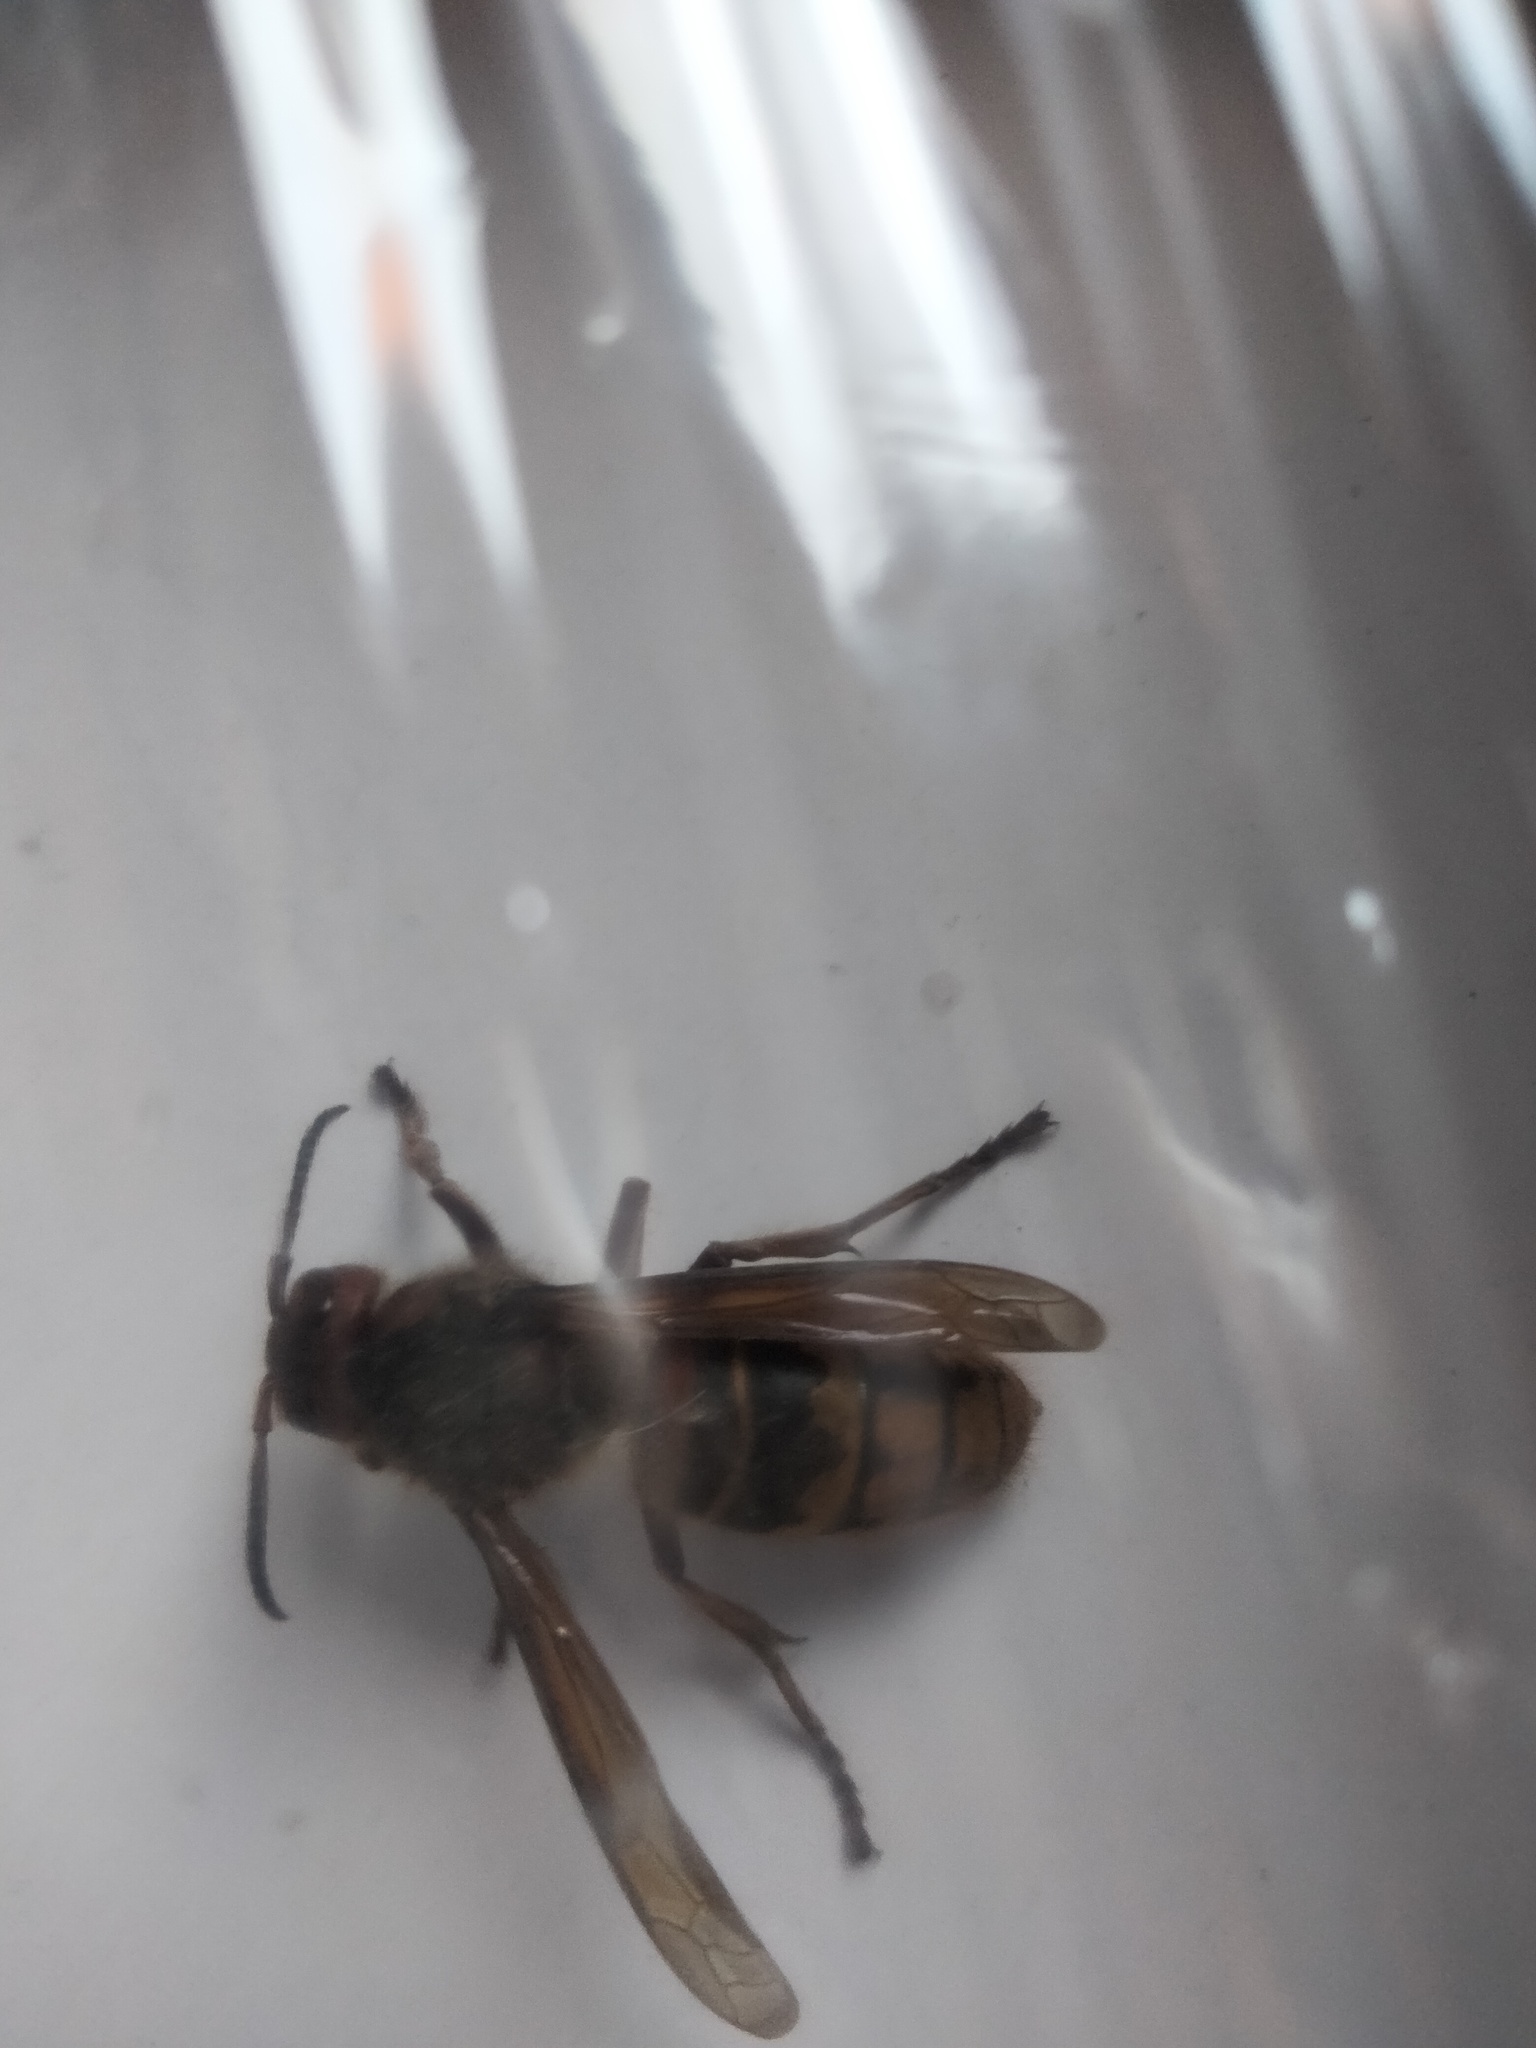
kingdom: Animalia
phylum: Arthropoda
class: Insecta
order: Hymenoptera
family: Vespidae
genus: Vespa
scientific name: Vespa crabro
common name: Hornet
